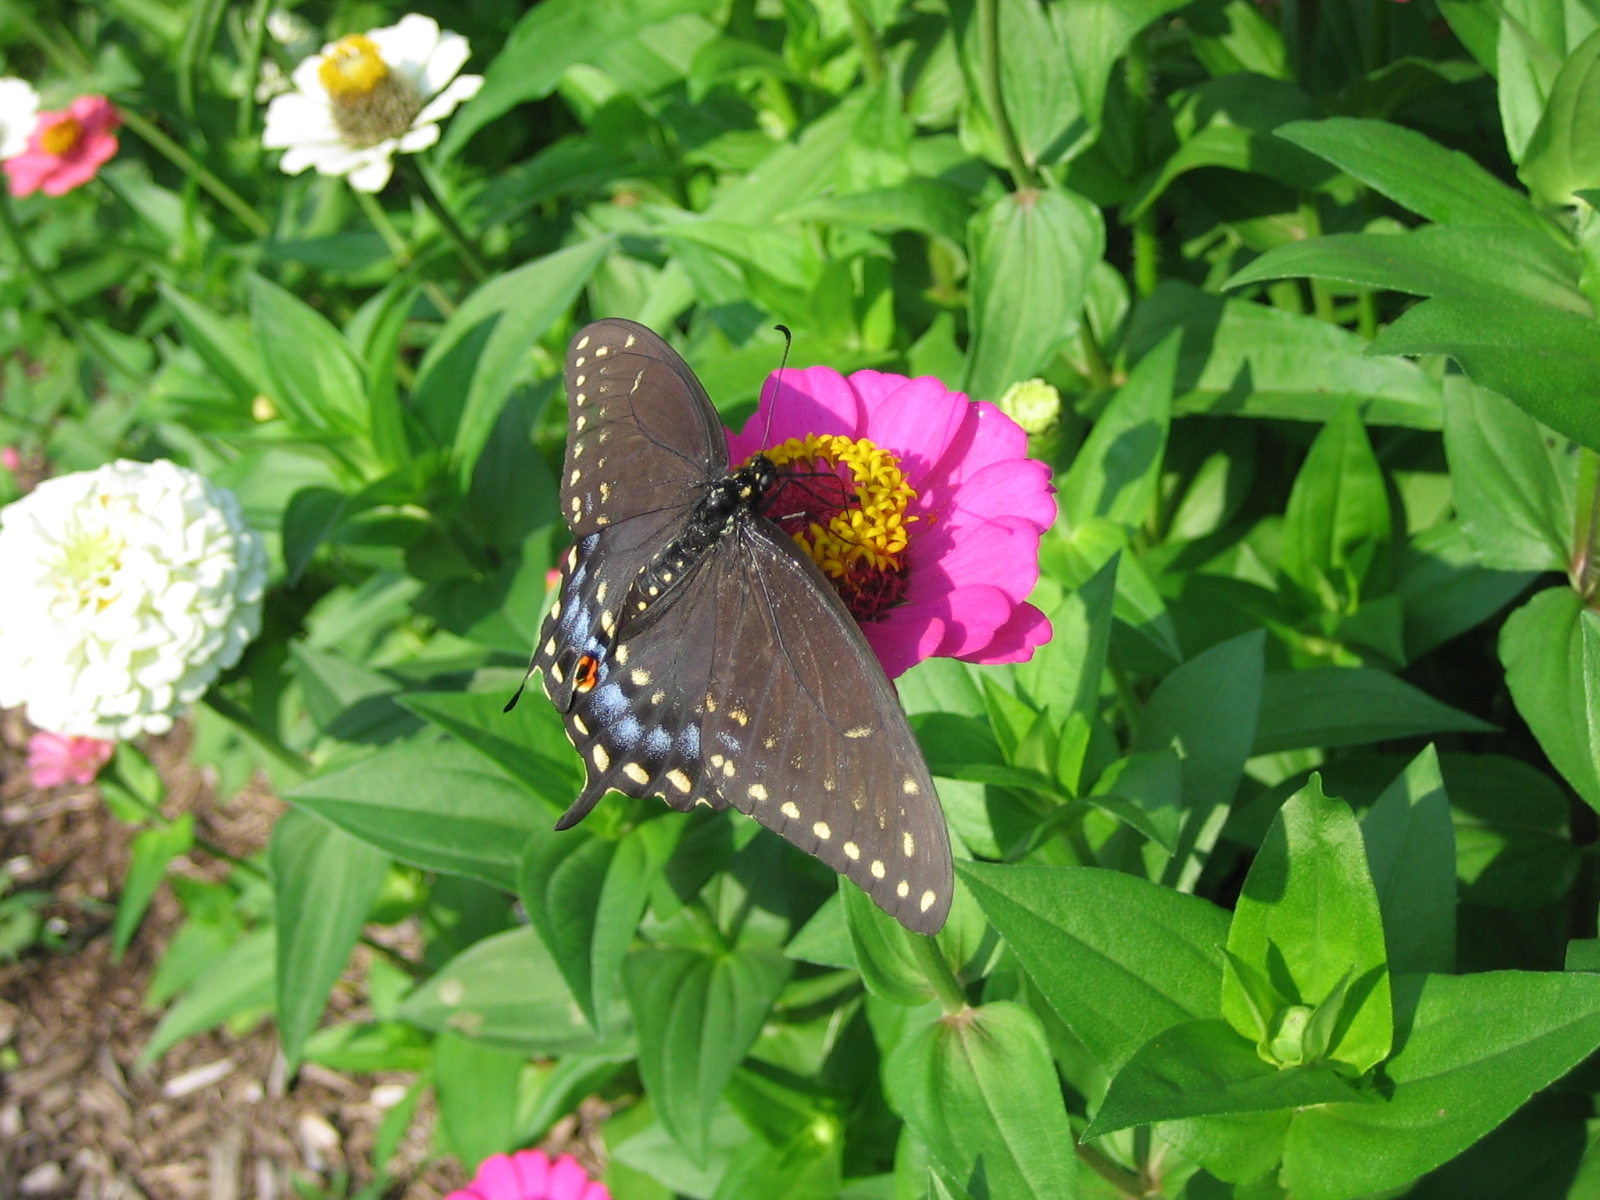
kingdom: Animalia
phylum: Arthropoda
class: Insecta
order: Lepidoptera
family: Papilionidae
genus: Papilio
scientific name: Papilio polyxenes
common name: Black swallowtail
